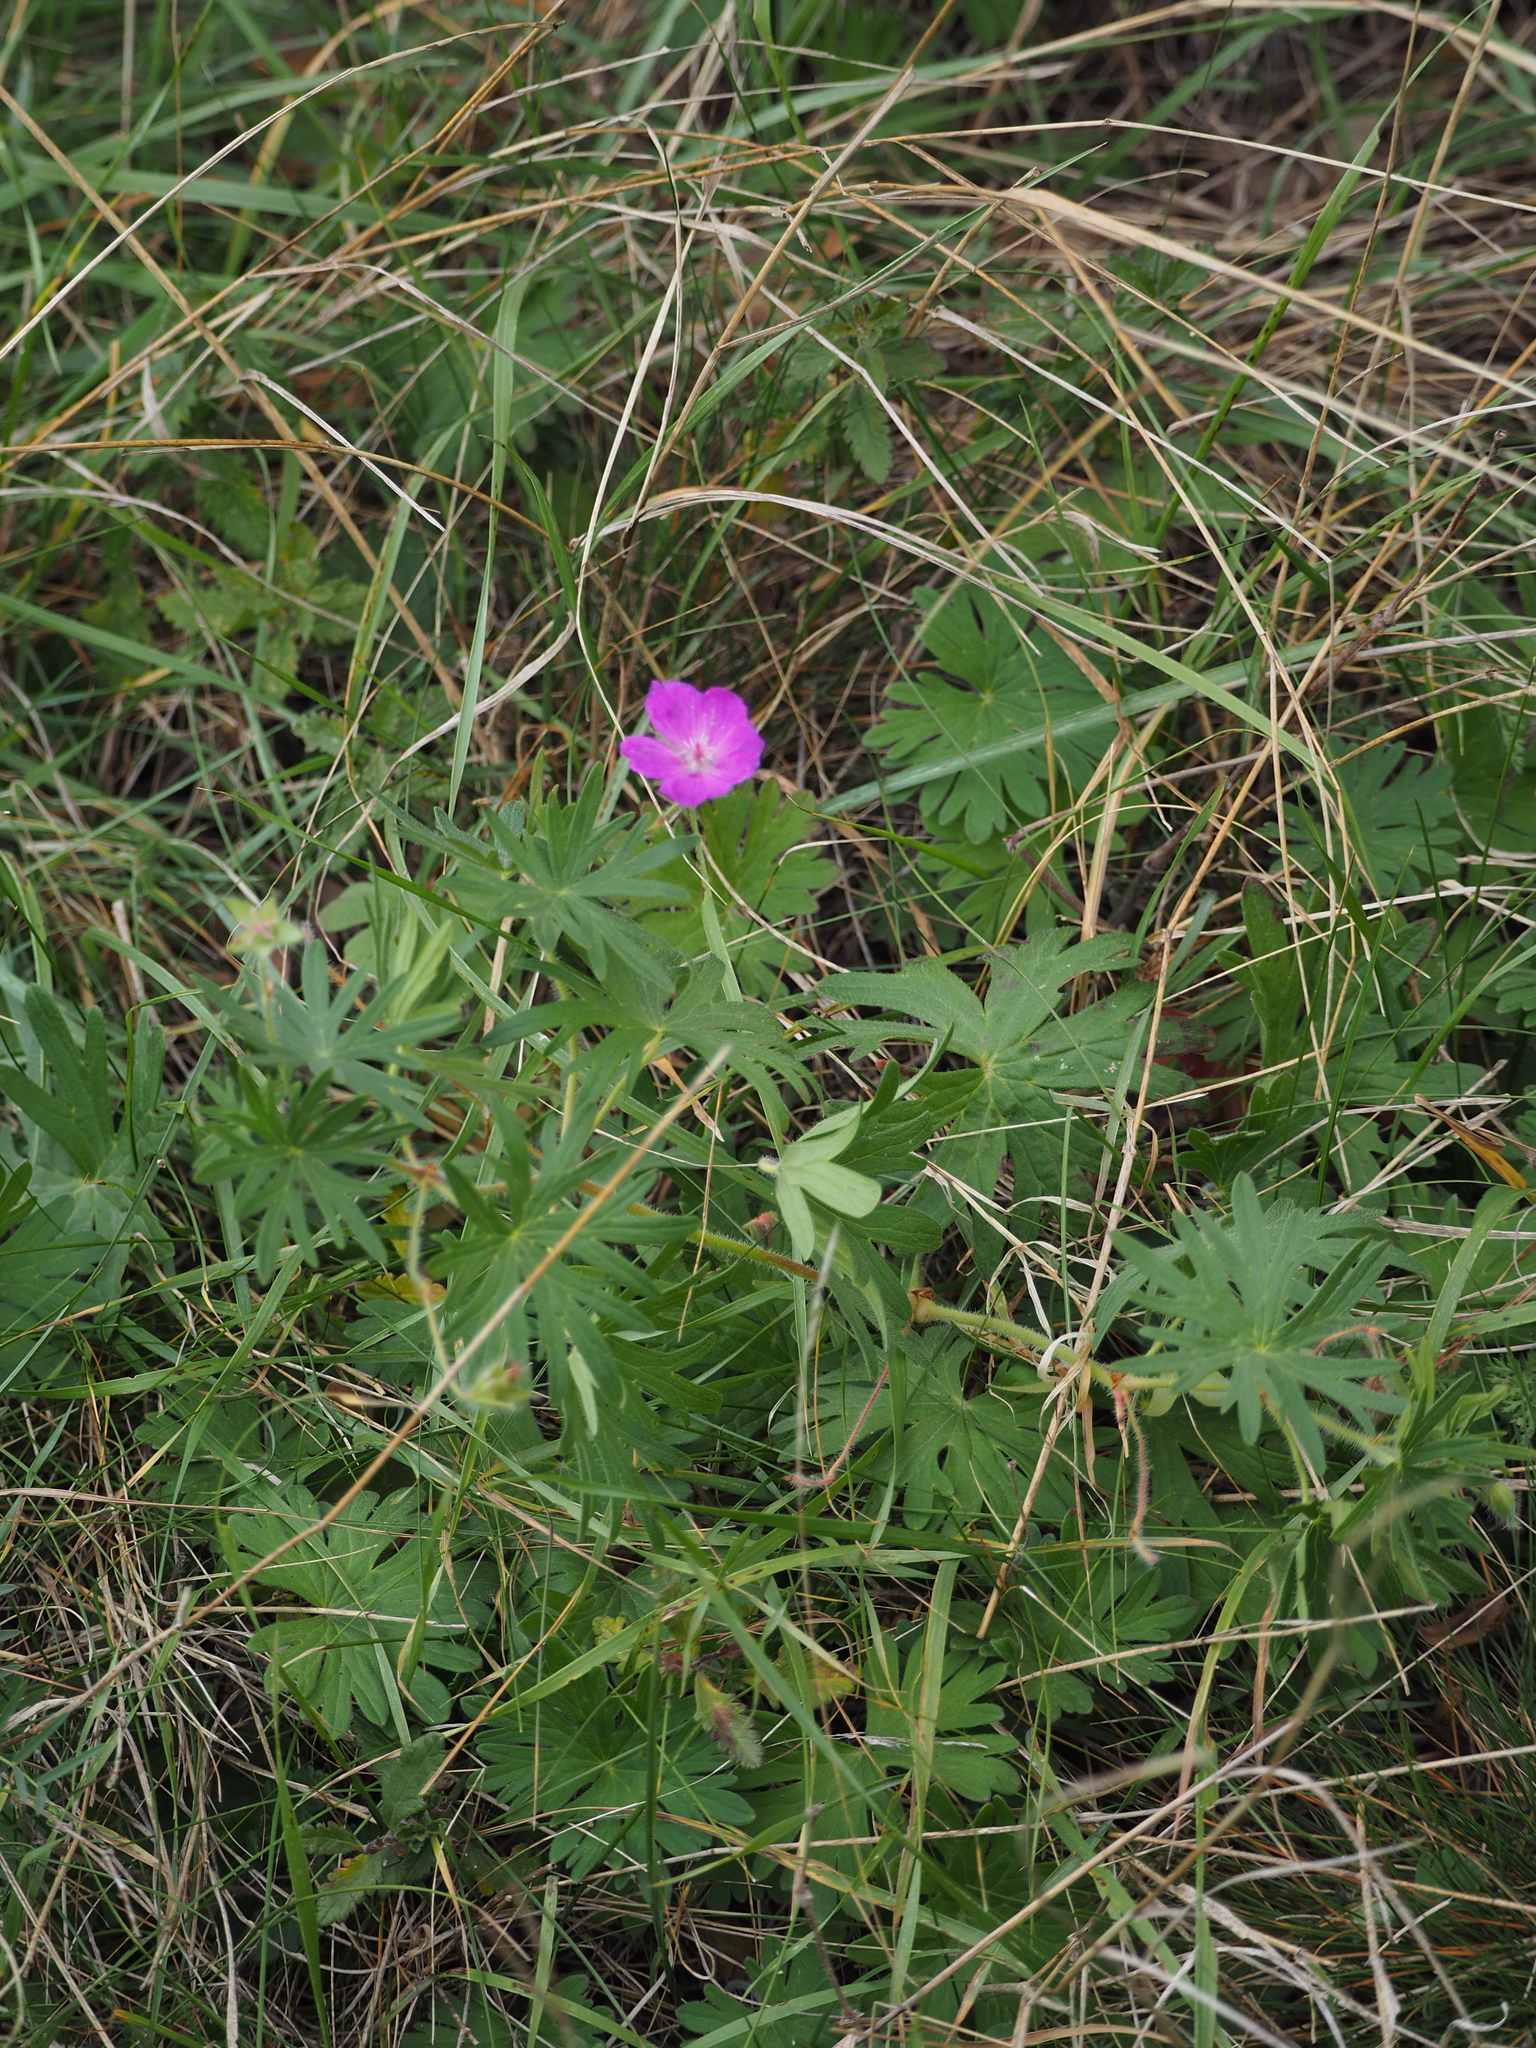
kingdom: Plantae
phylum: Tracheophyta
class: Magnoliopsida
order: Geraniales
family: Geraniaceae
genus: Geranium
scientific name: Geranium sanguineum
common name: Bloody crane's-bill
